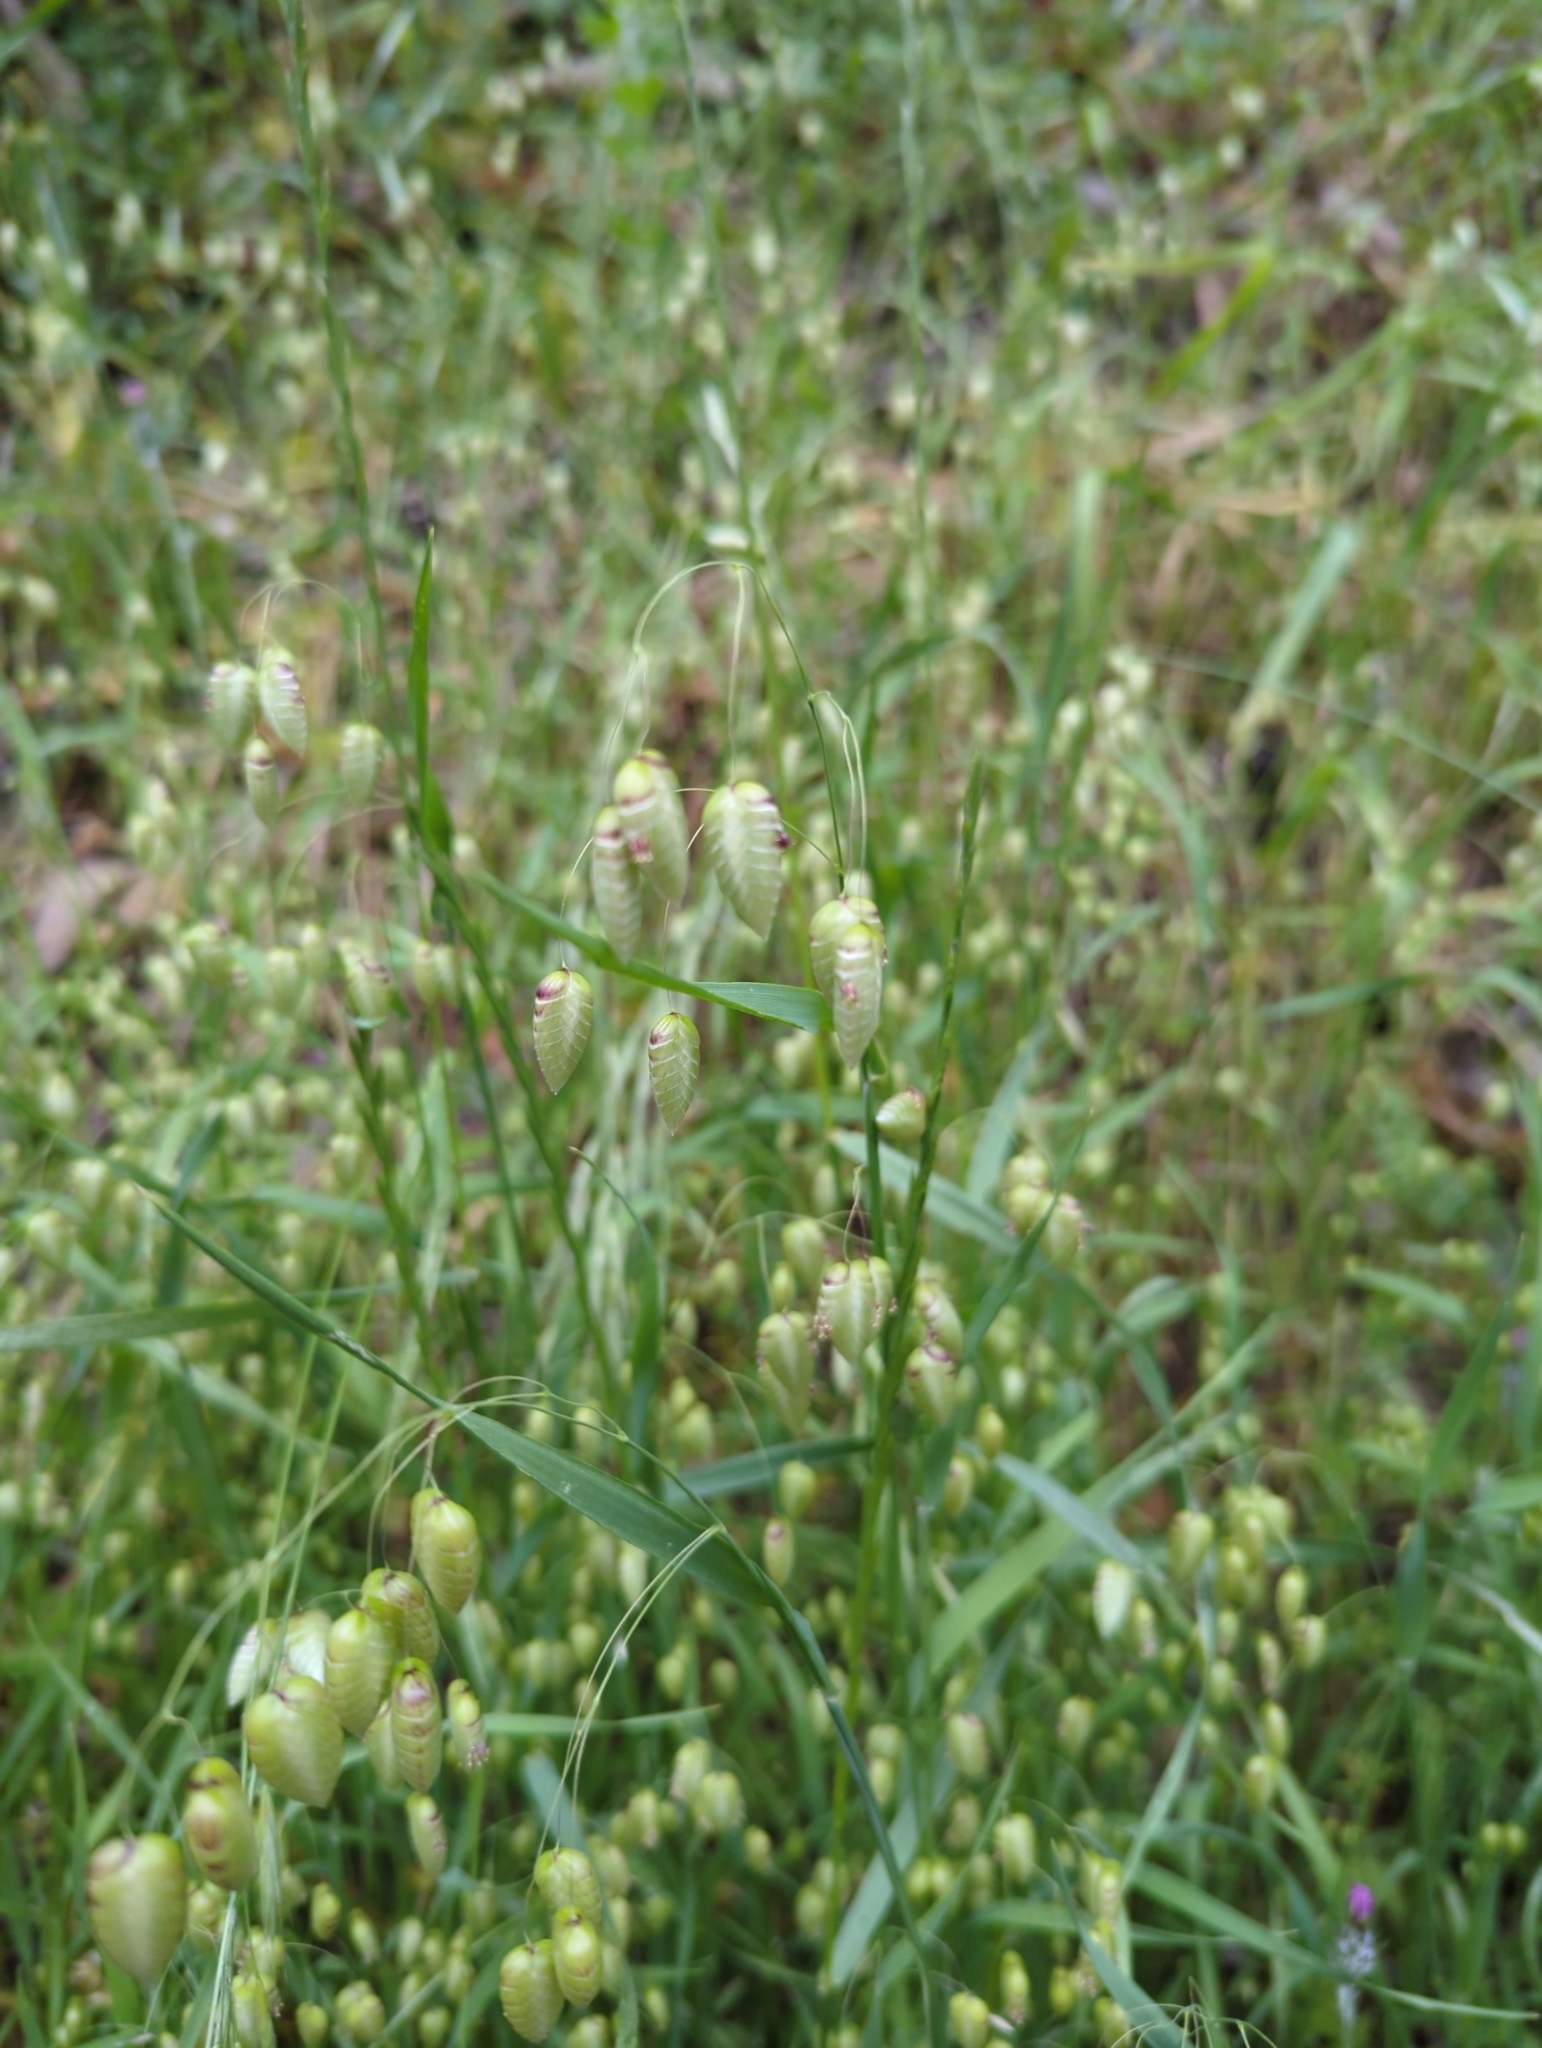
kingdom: Plantae
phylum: Tracheophyta
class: Liliopsida
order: Poales
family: Poaceae
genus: Briza
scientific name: Briza maxima
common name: Big quakinggrass
